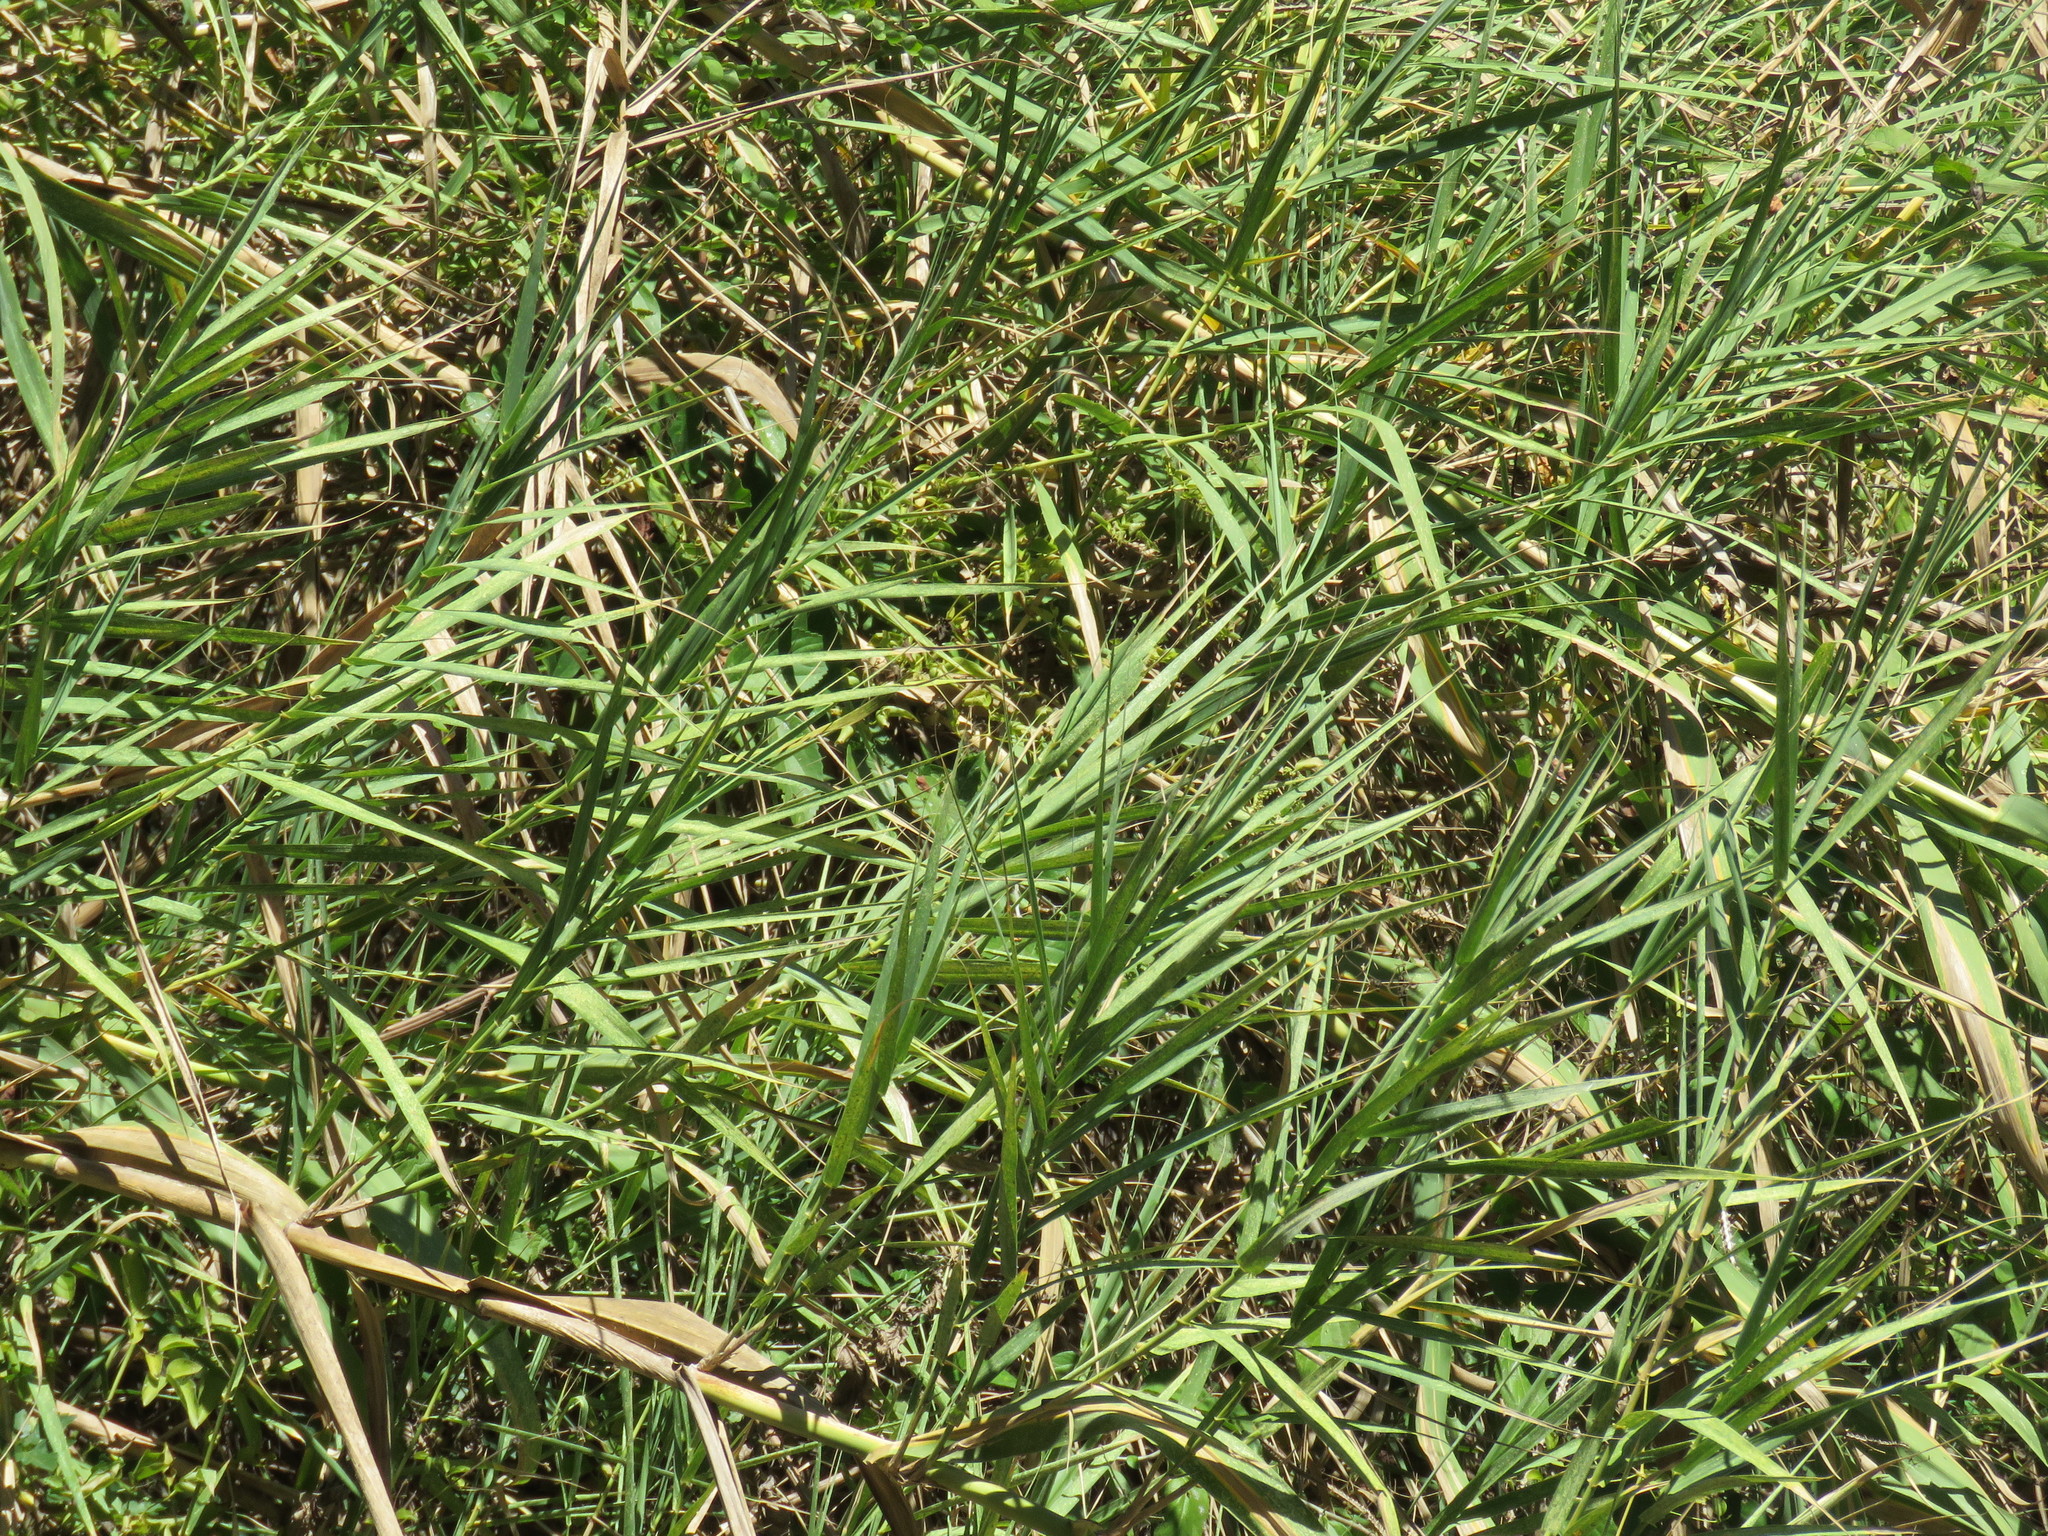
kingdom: Plantae
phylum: Tracheophyta
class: Liliopsida
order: Poales
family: Poaceae
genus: Arundo
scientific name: Arundo donax
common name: Giant reed
